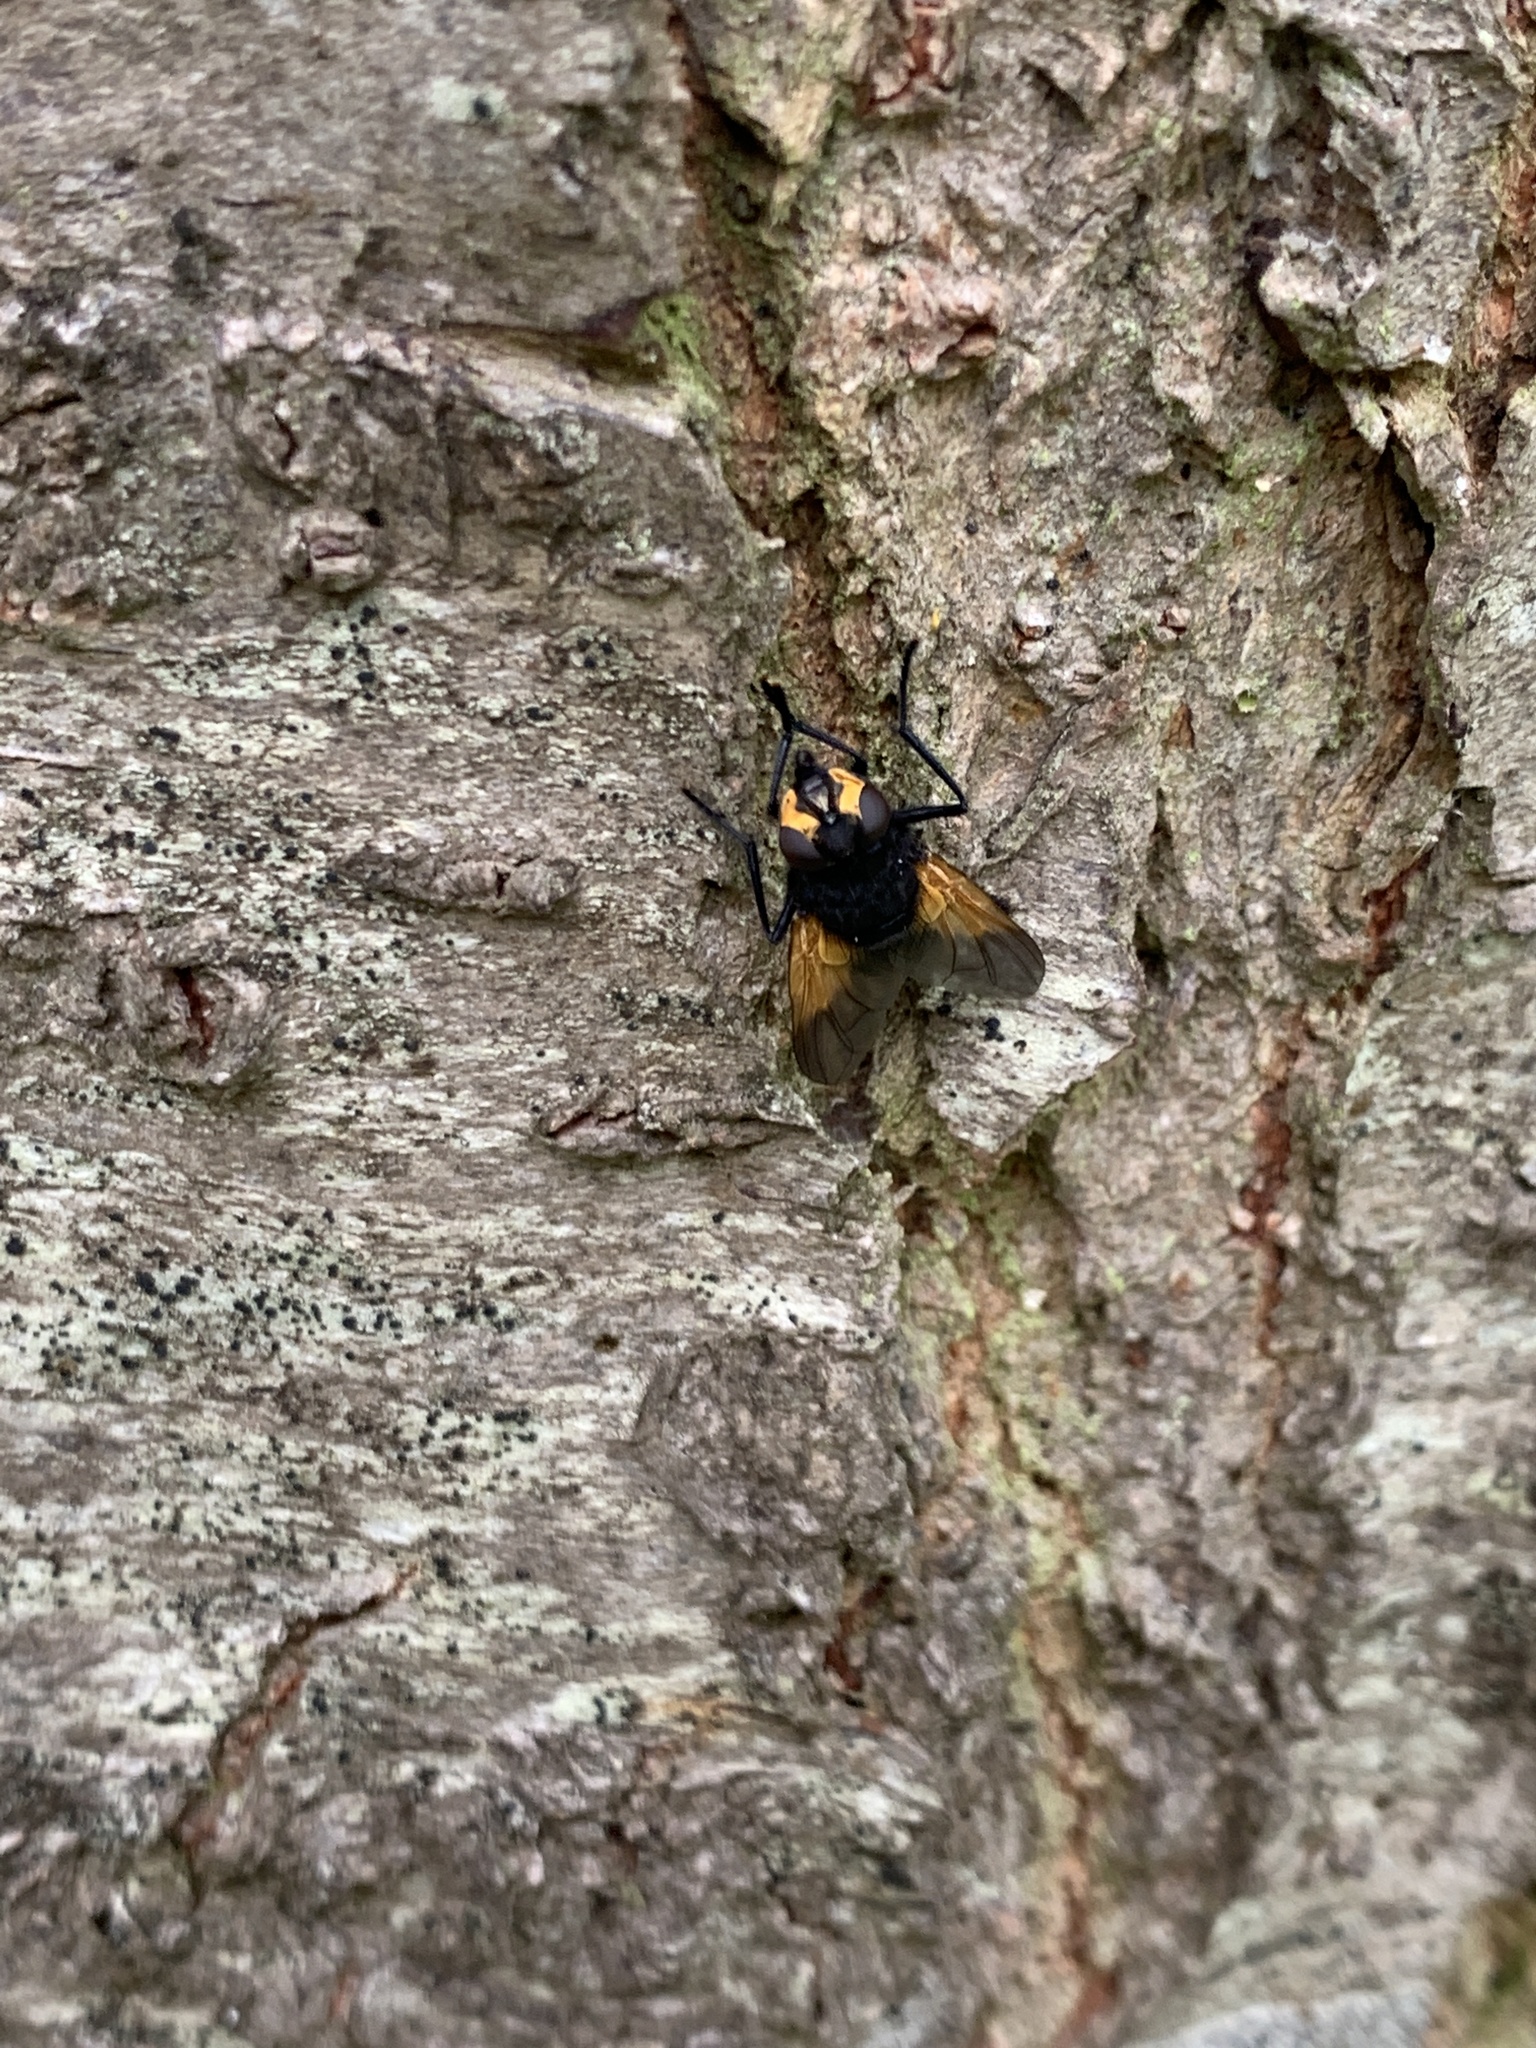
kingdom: Animalia
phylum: Arthropoda
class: Insecta
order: Diptera
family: Muscidae
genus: Mesembrina
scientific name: Mesembrina meridiana
